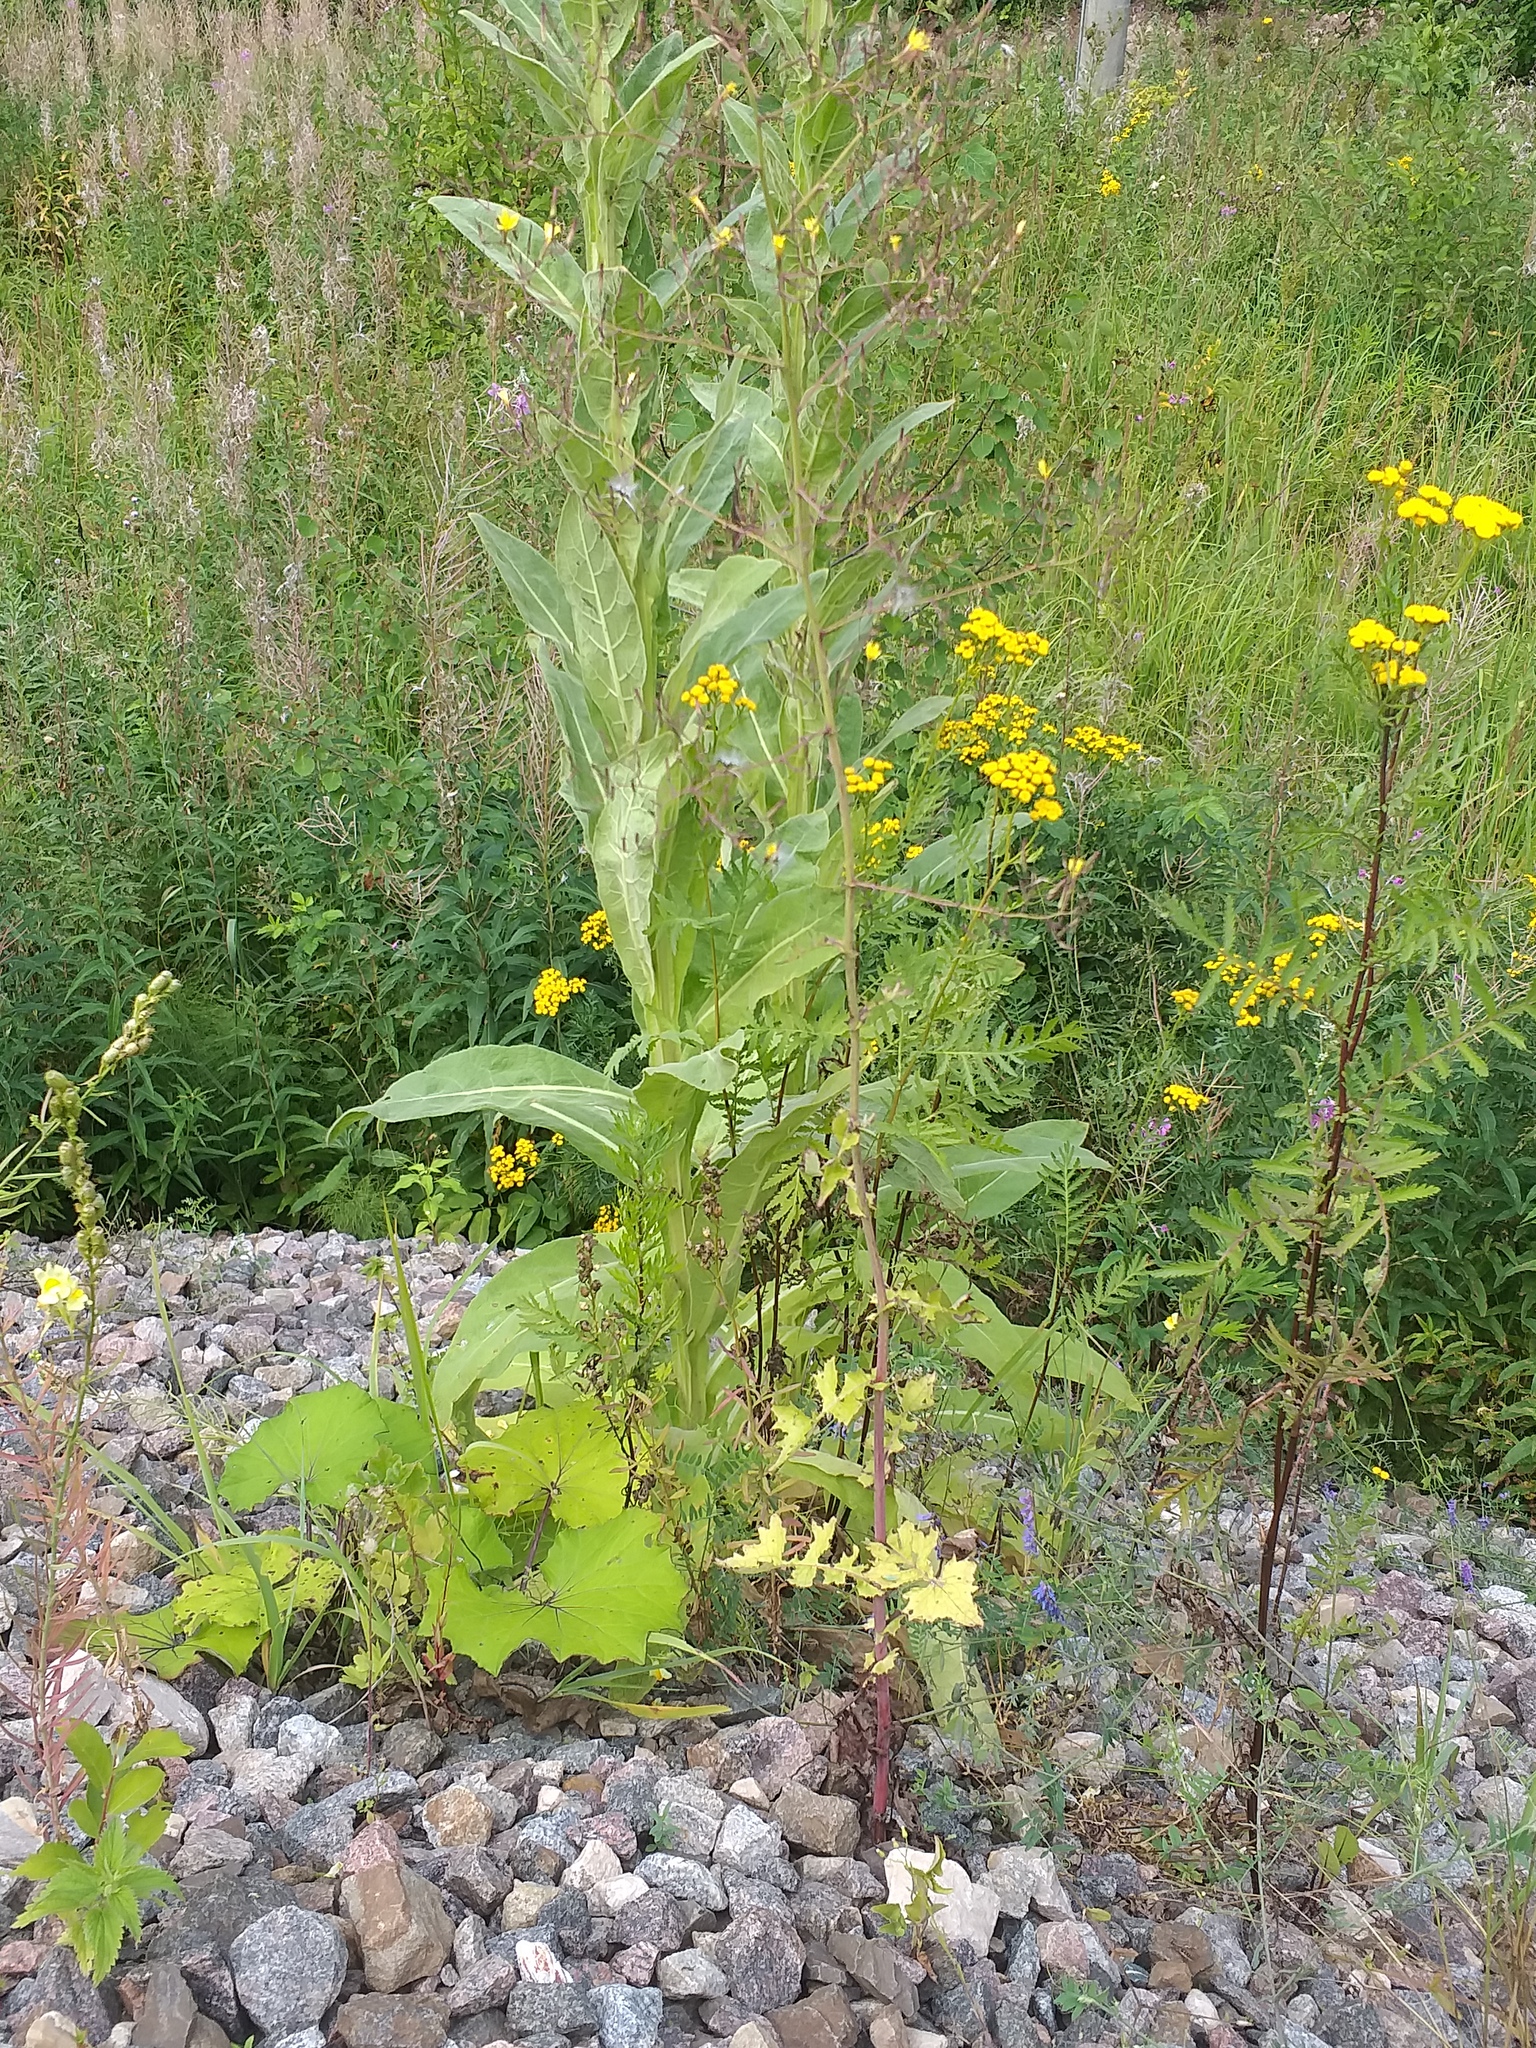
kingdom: Plantae
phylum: Tracheophyta
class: Magnoliopsida
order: Asterales
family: Asteraceae
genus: Lactuca
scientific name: Lactuca serriola
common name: Prickly lettuce
